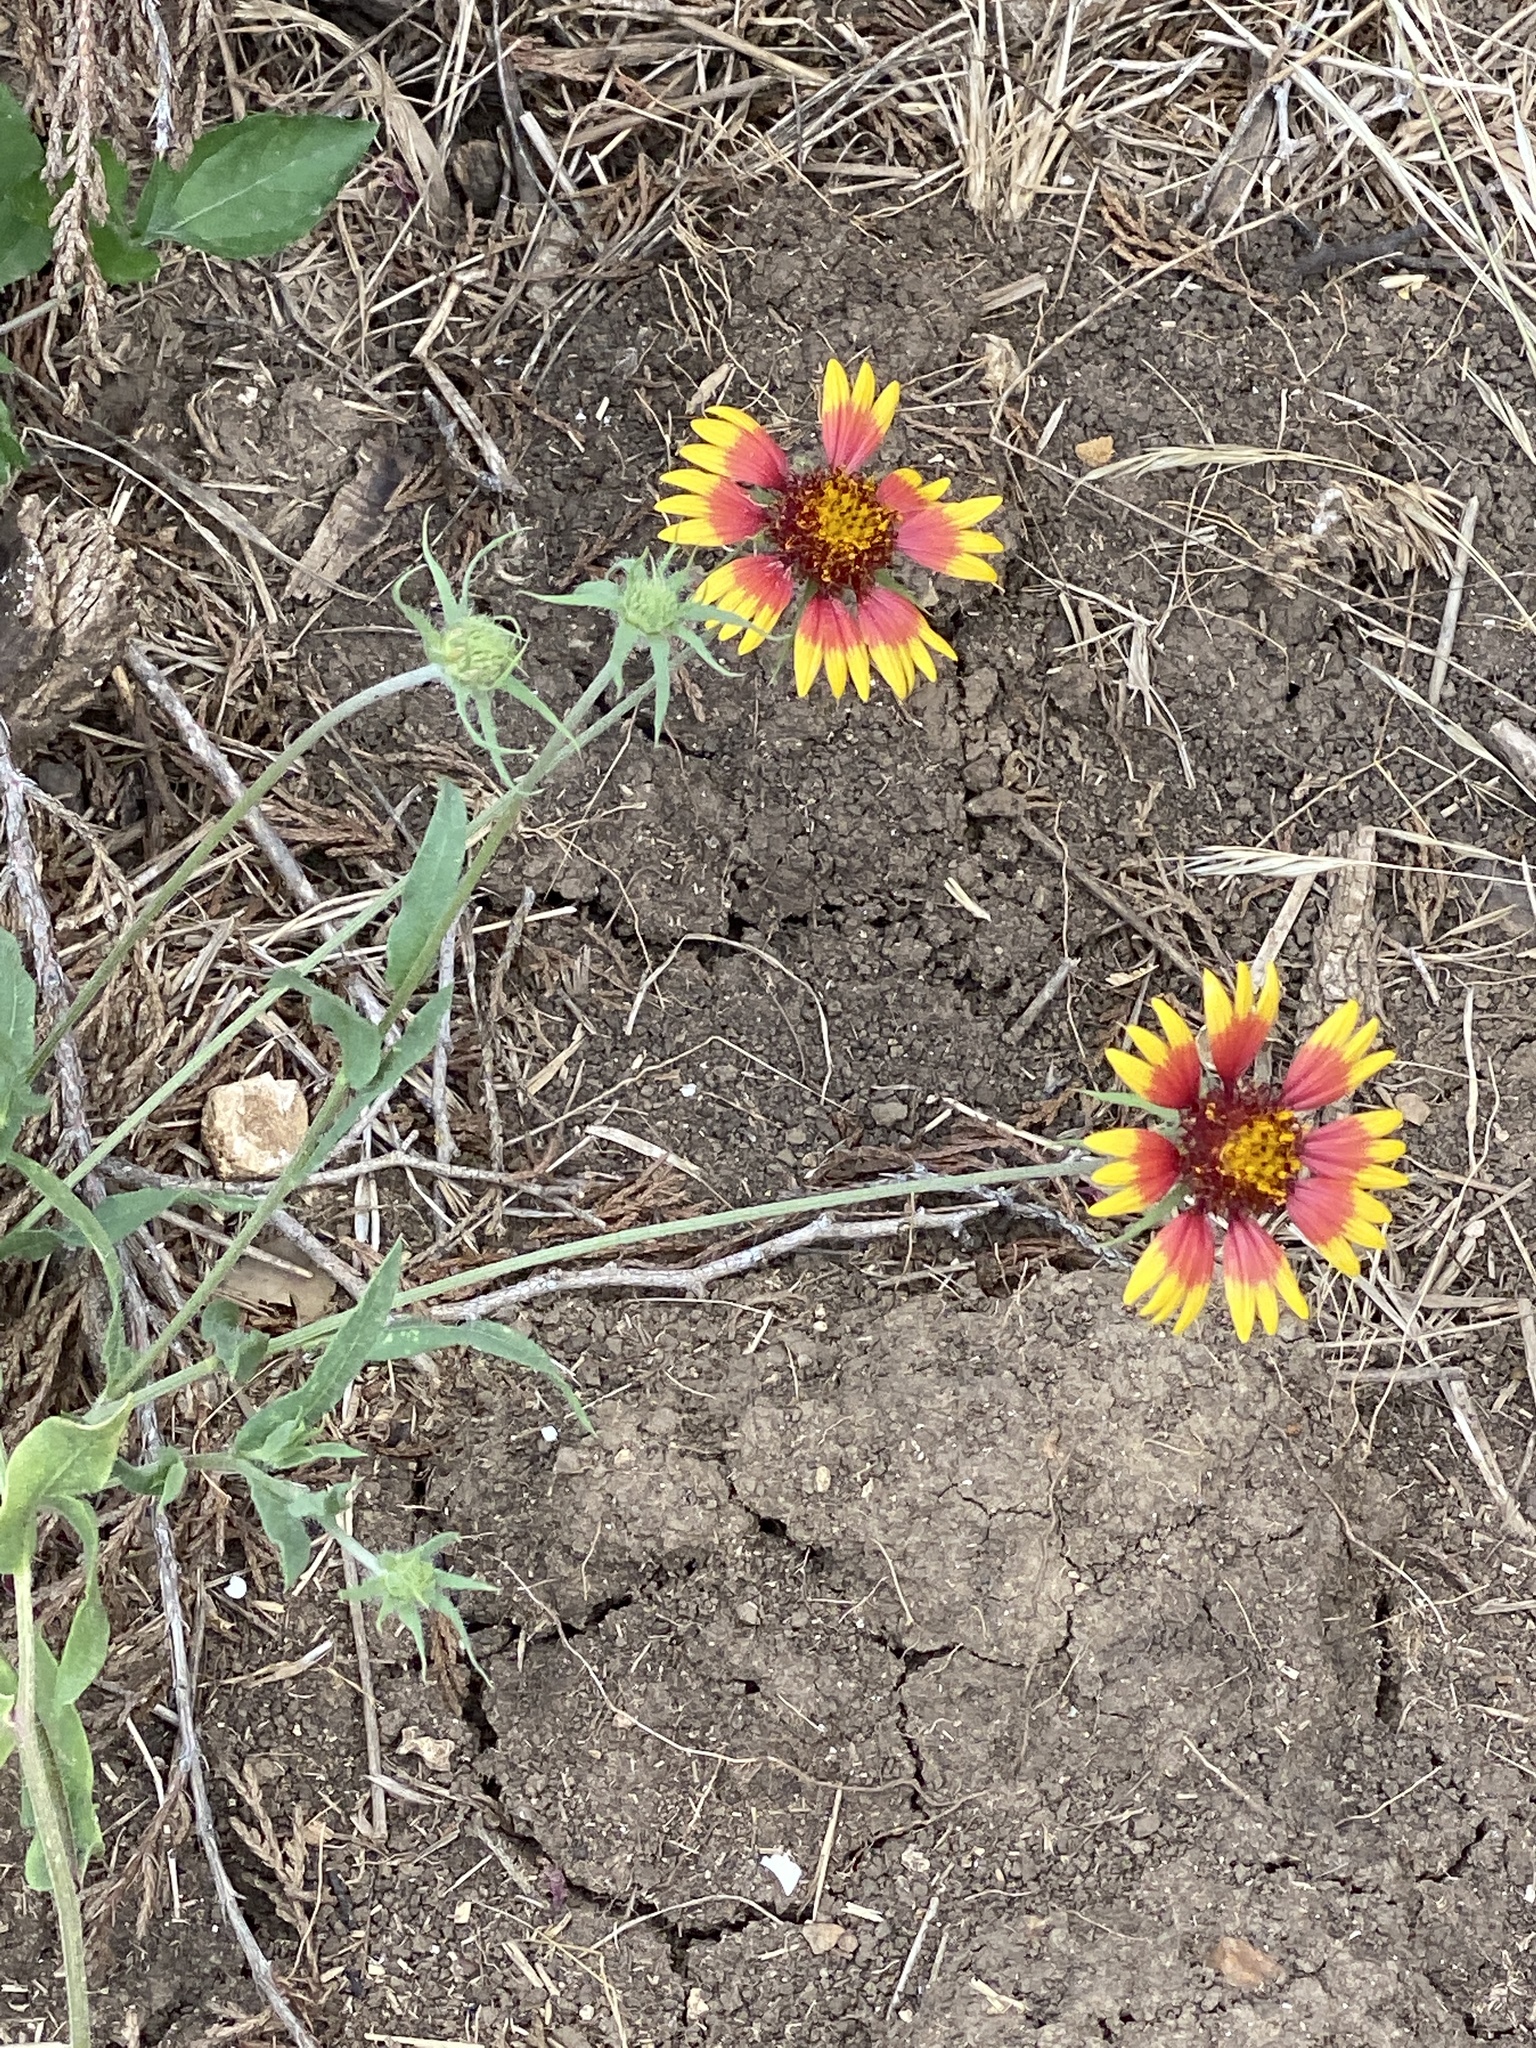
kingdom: Plantae
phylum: Tracheophyta
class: Magnoliopsida
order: Asterales
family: Asteraceae
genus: Gaillardia
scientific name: Gaillardia pulchella
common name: Firewheel
